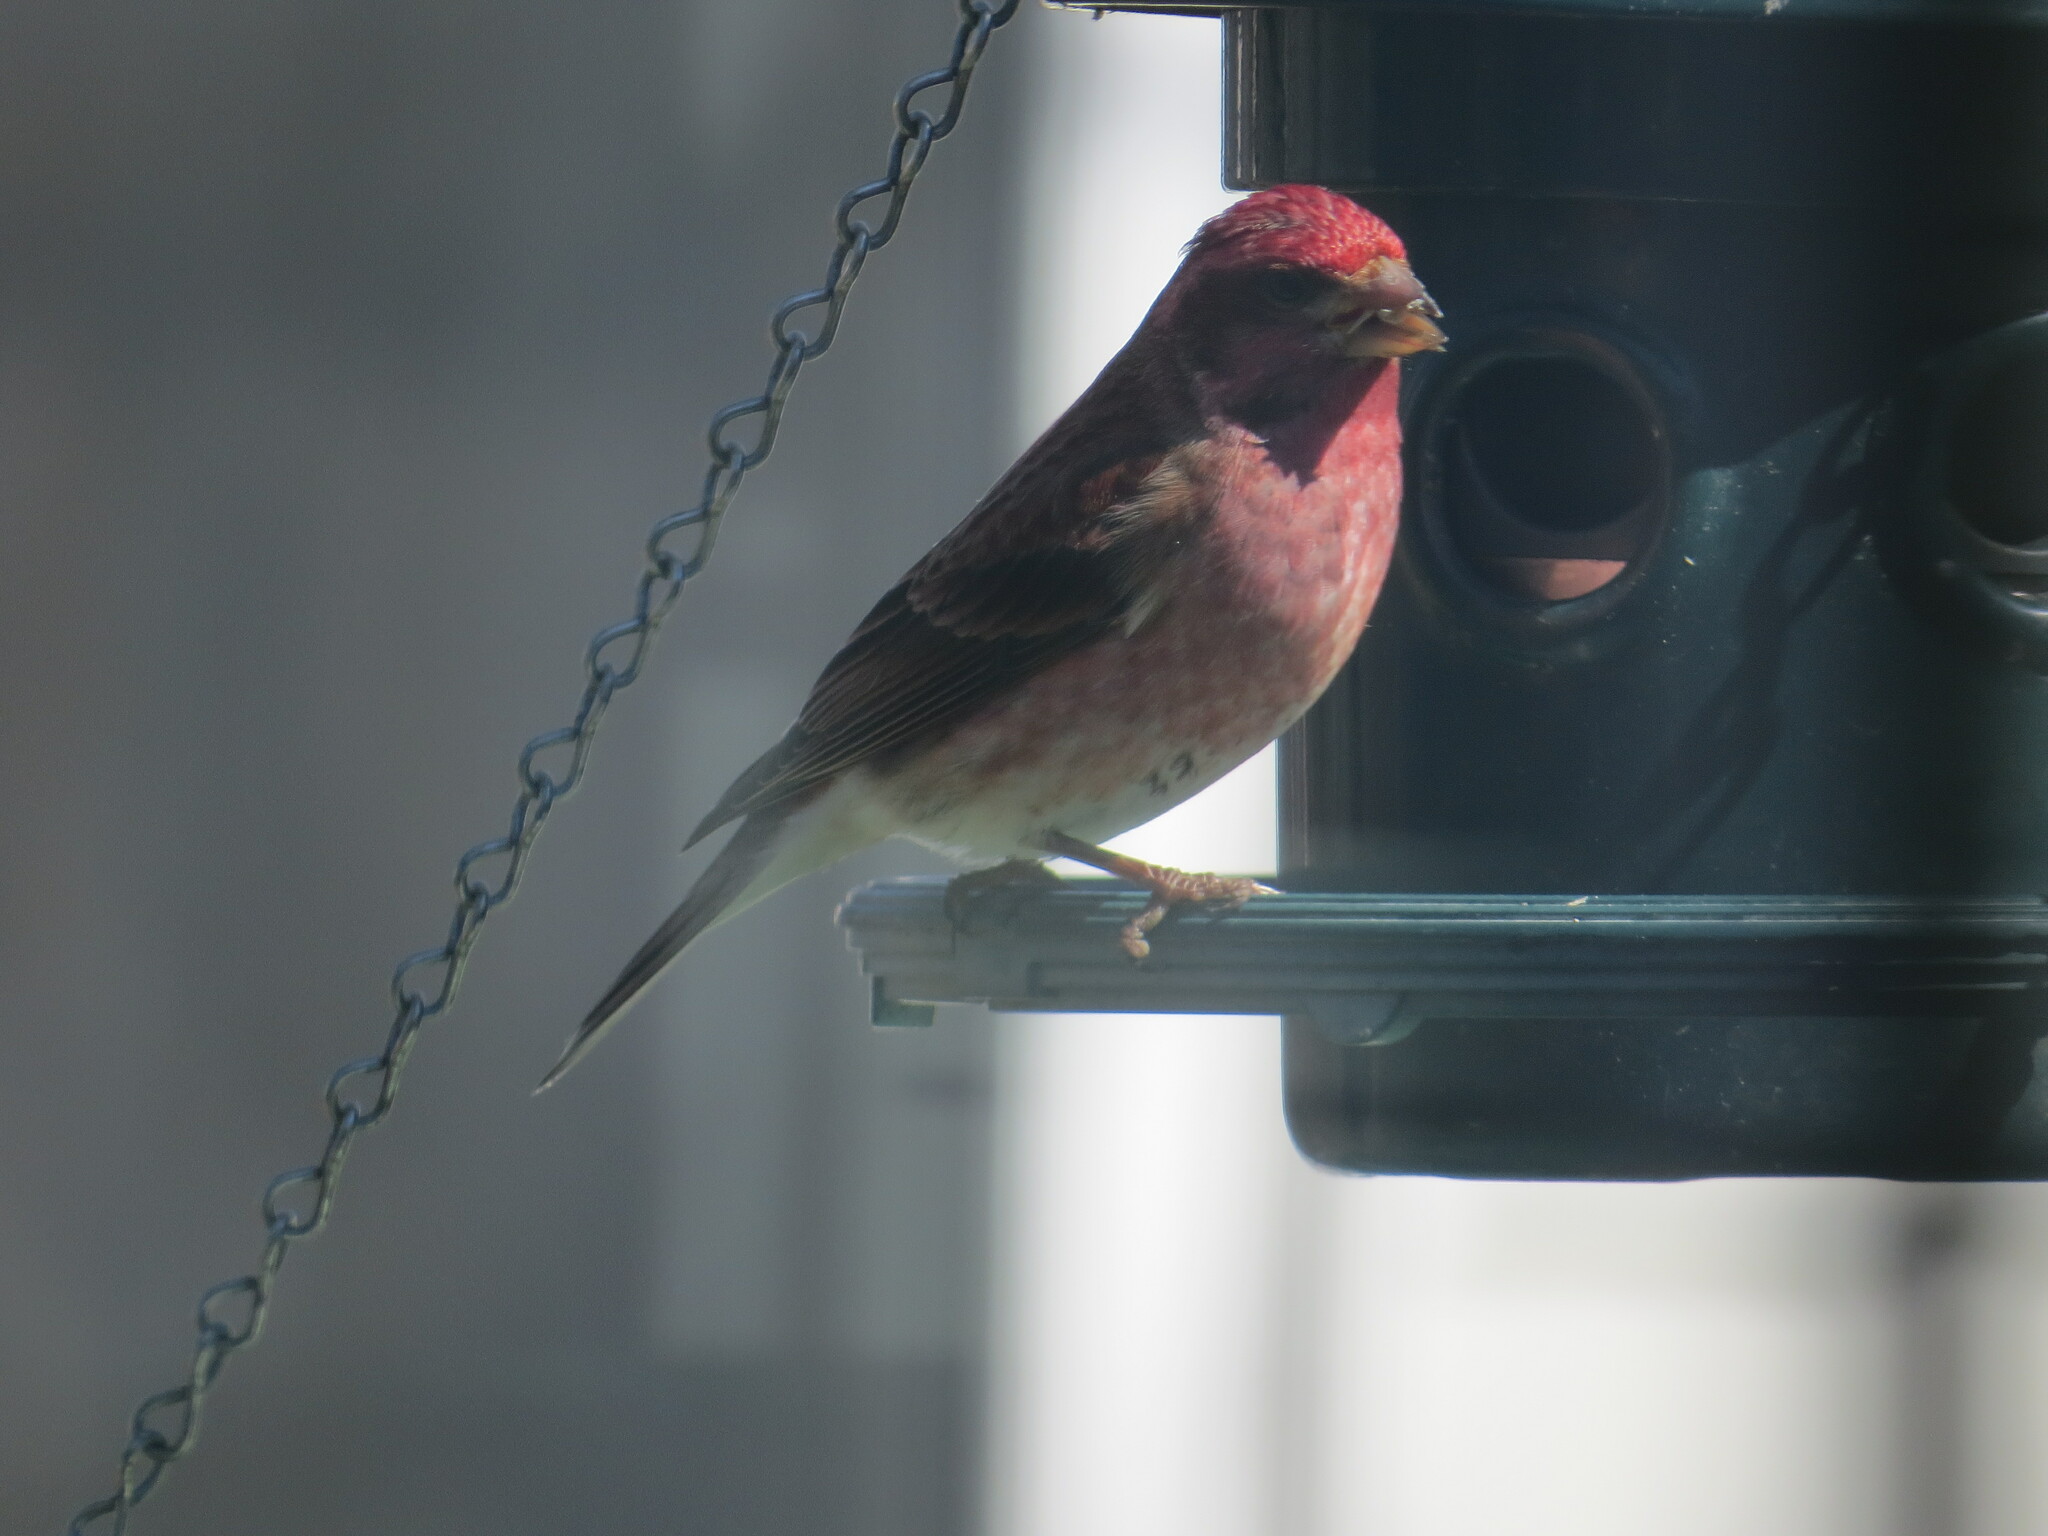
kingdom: Animalia
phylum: Chordata
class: Aves
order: Passeriformes
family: Fringillidae
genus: Haemorhous
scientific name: Haemorhous purpureus
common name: Purple finch
